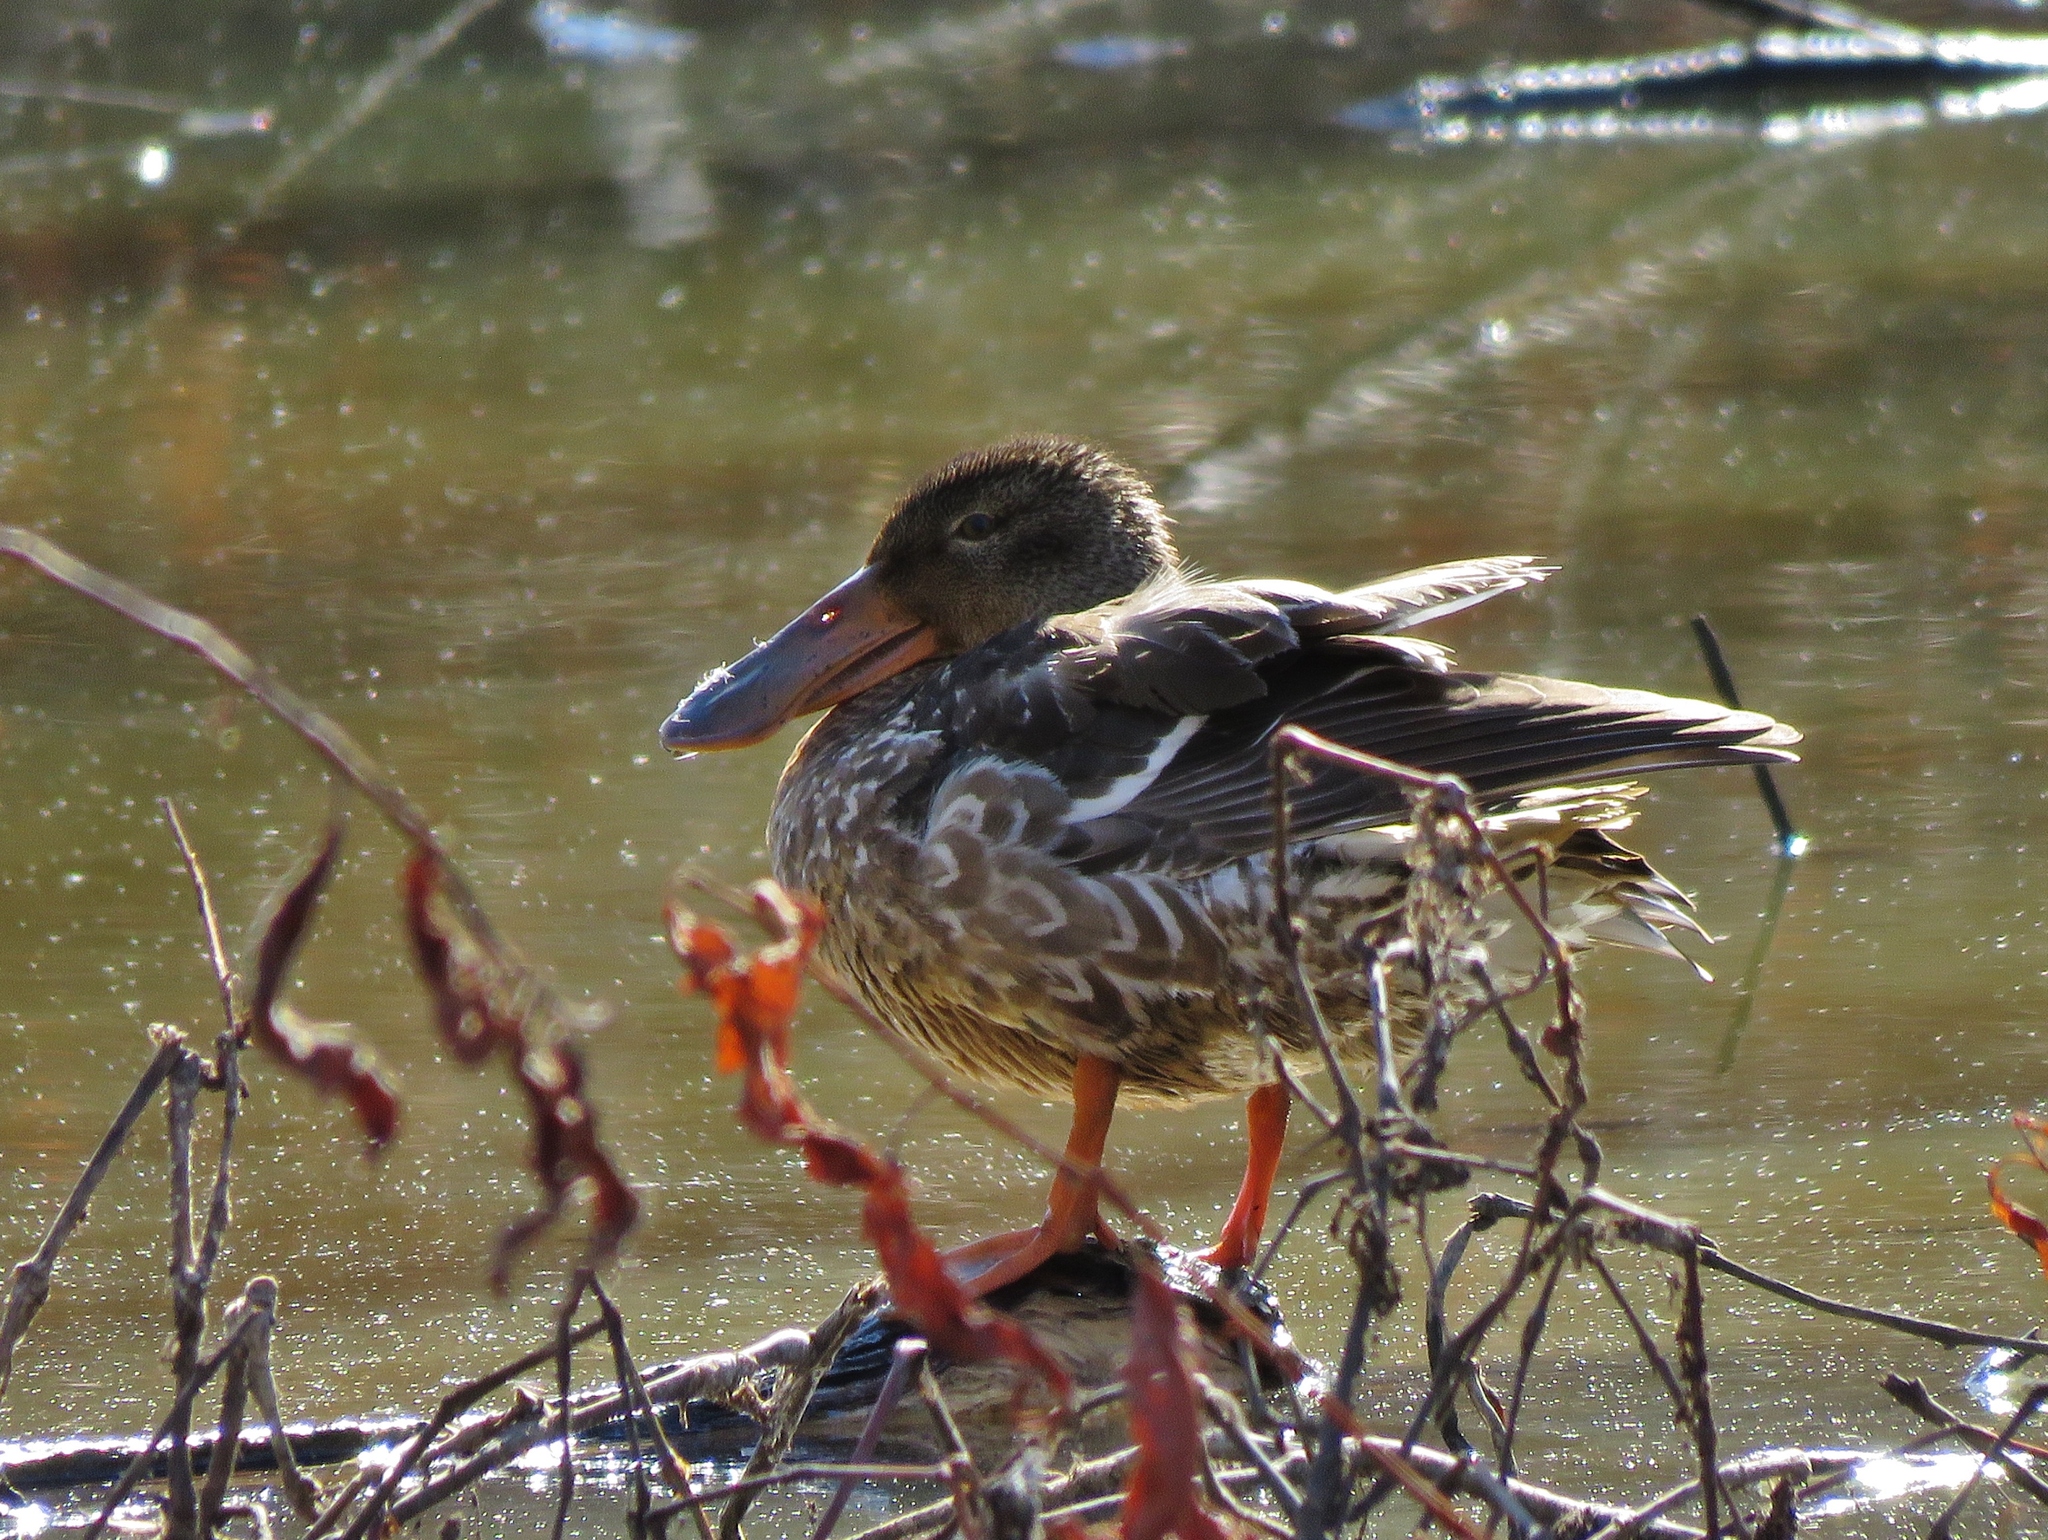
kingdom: Animalia
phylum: Chordata
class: Aves
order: Anseriformes
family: Anatidae
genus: Spatula
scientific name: Spatula clypeata
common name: Northern shoveler
